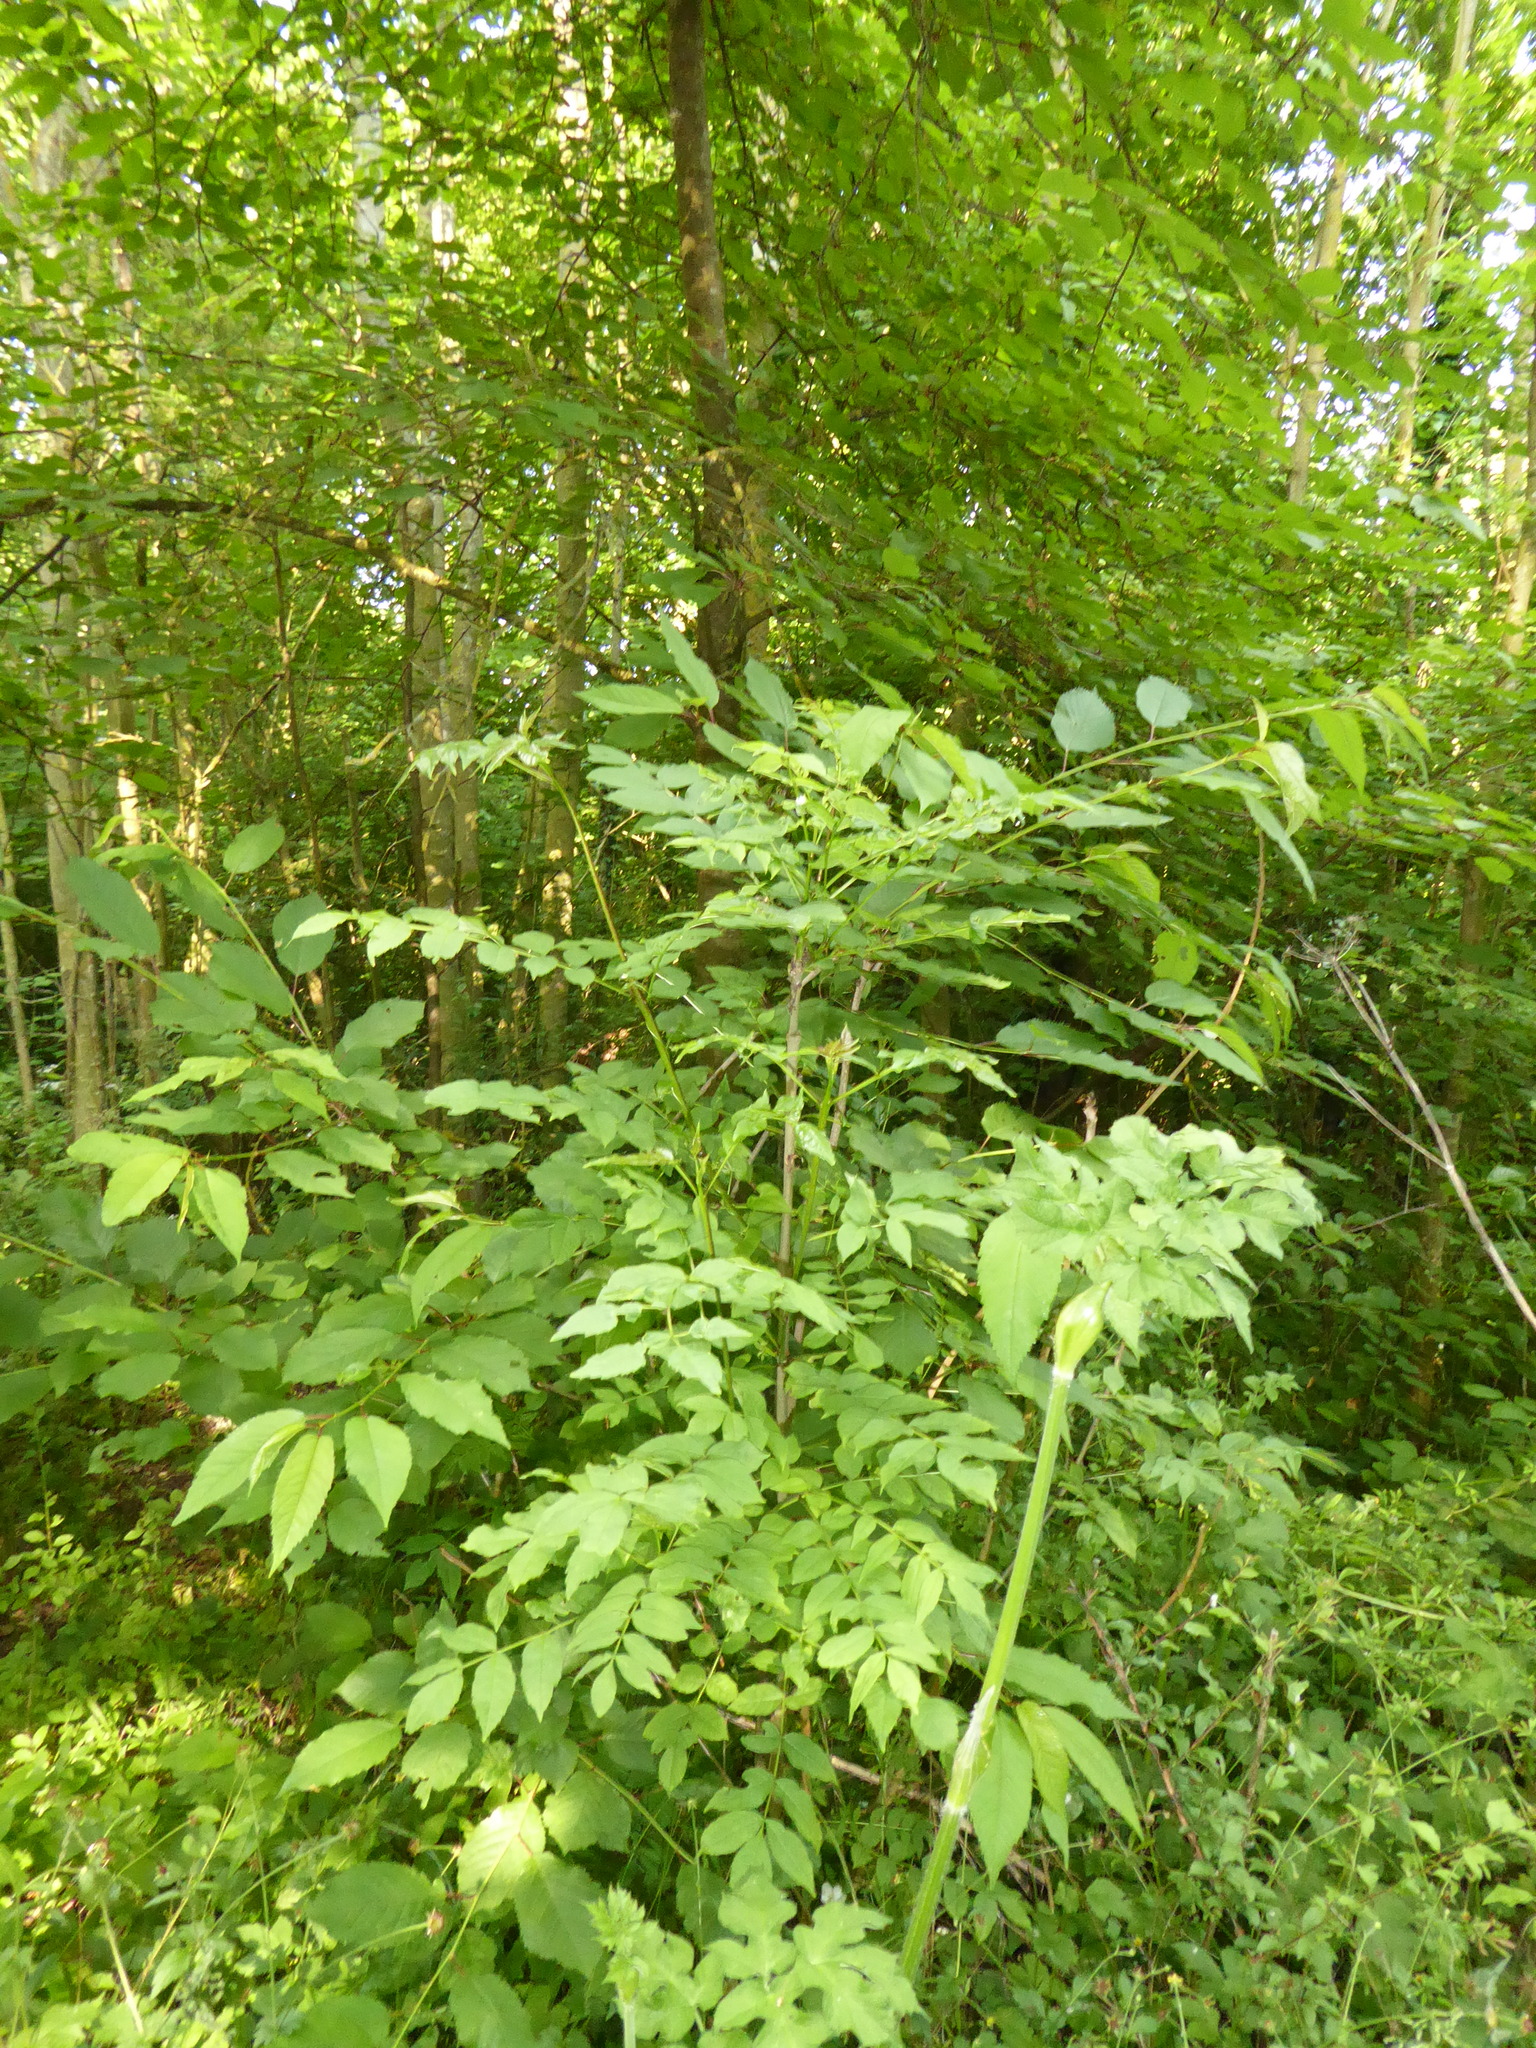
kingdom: Plantae
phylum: Tracheophyta
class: Magnoliopsida
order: Lamiales
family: Oleaceae
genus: Fraxinus
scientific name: Fraxinus excelsior
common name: European ash
